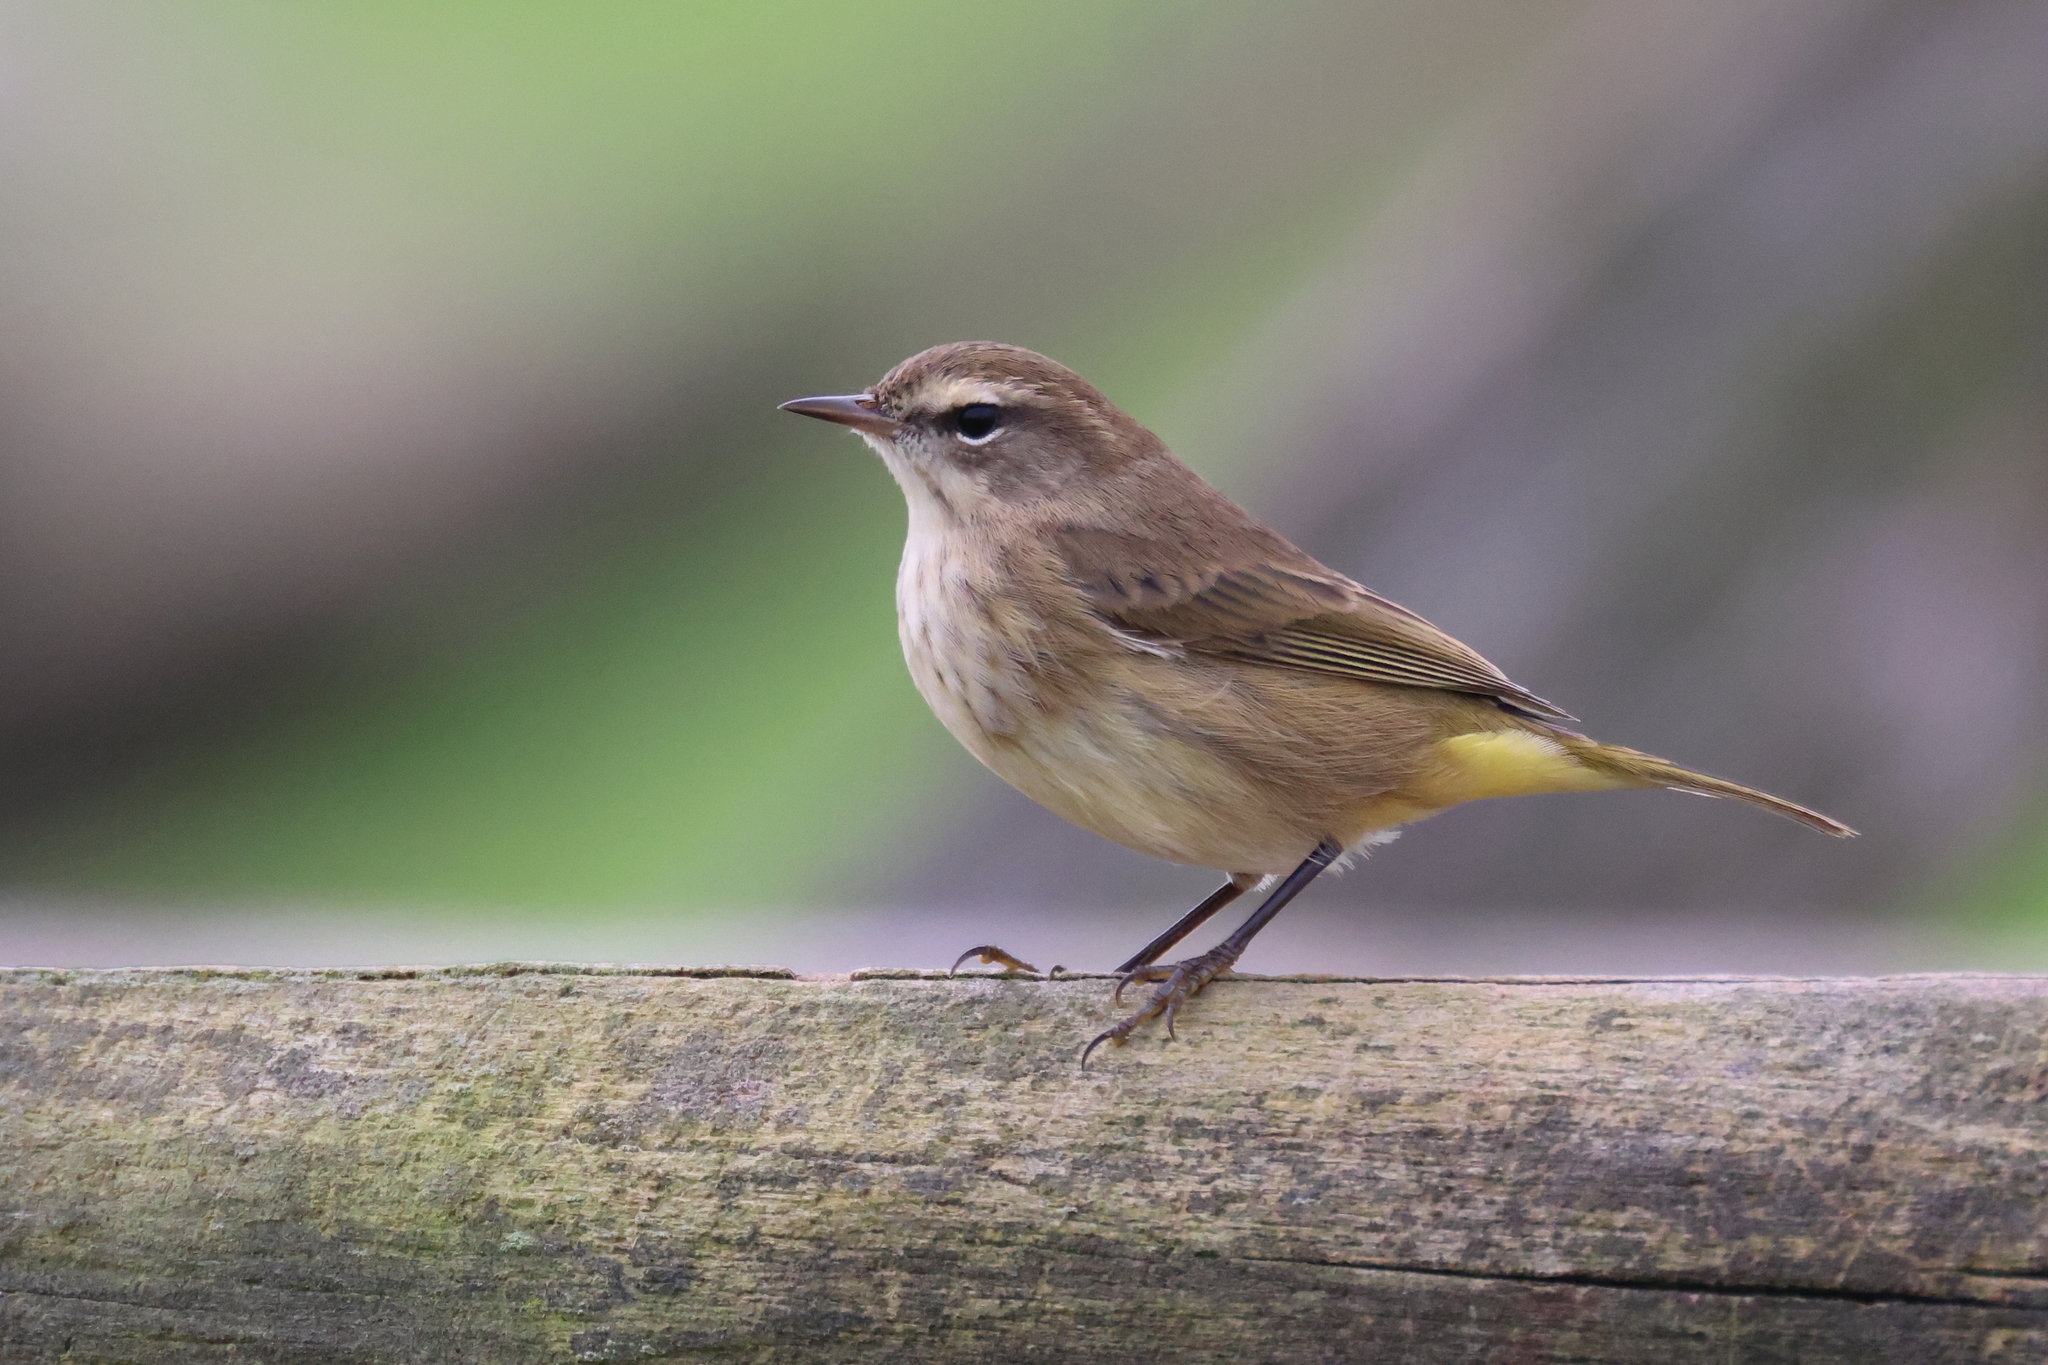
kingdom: Animalia
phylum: Chordata
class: Aves
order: Passeriformes
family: Parulidae
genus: Setophaga
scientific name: Setophaga palmarum
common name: Palm warbler
